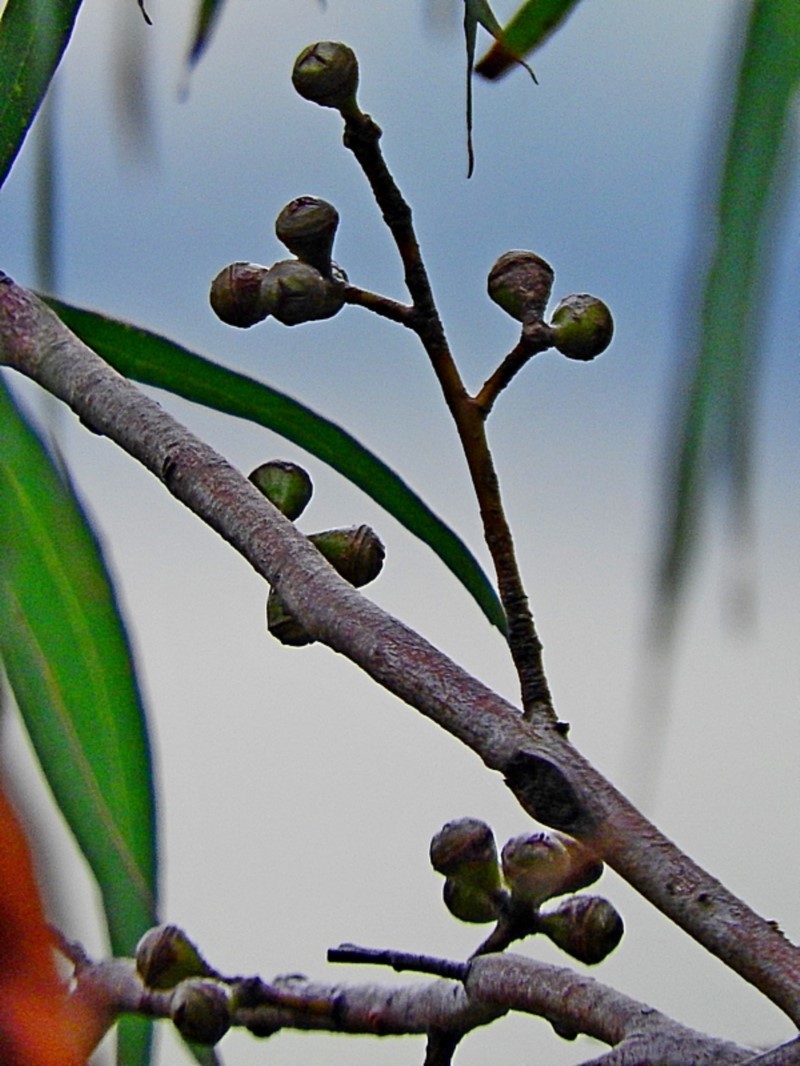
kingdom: Plantae
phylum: Tracheophyta
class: Magnoliopsida
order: Myrtales
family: Myrtaceae
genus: Eucalyptus
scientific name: Eucalyptus smithii
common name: Blackbutt-peppermint
